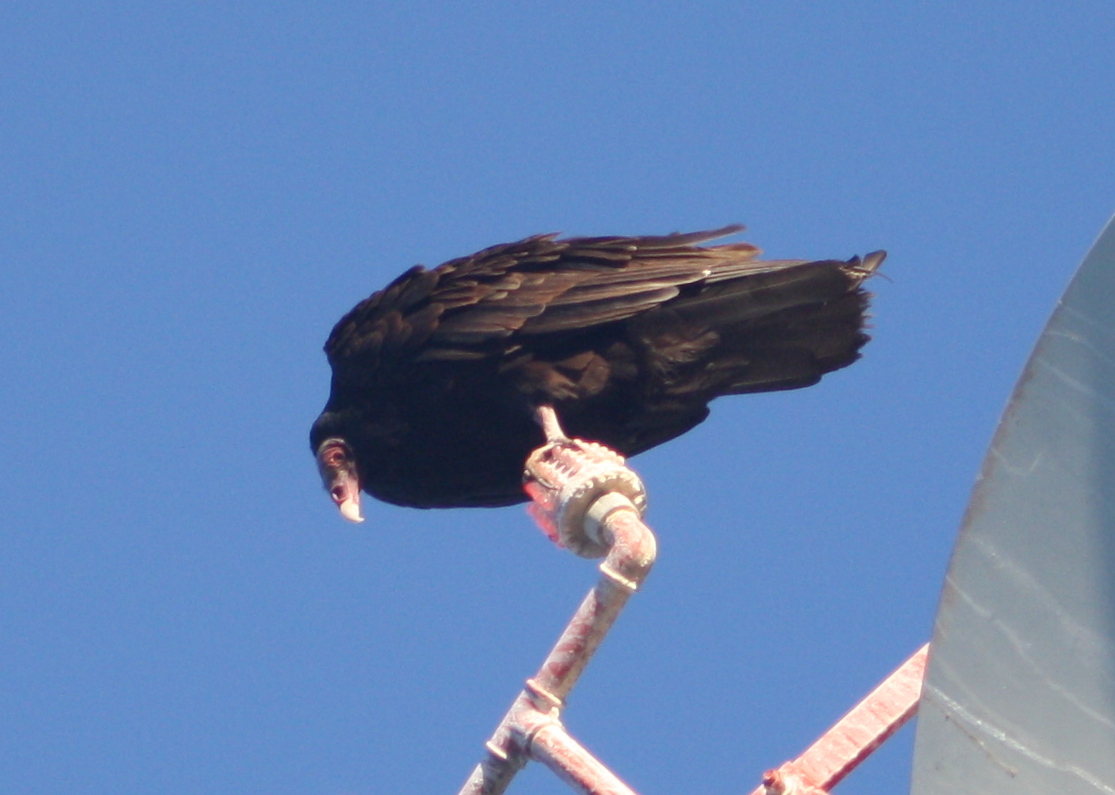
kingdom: Animalia
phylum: Chordata
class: Aves
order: Accipitriformes
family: Cathartidae
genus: Cathartes
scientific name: Cathartes aura
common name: Turkey vulture
